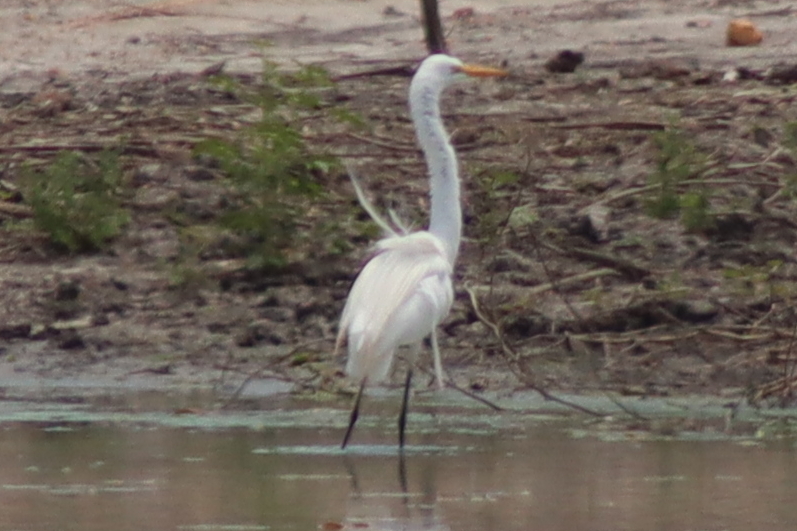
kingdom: Animalia
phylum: Chordata
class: Aves
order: Pelecaniformes
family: Ardeidae
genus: Ardea
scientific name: Ardea alba
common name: Great egret
